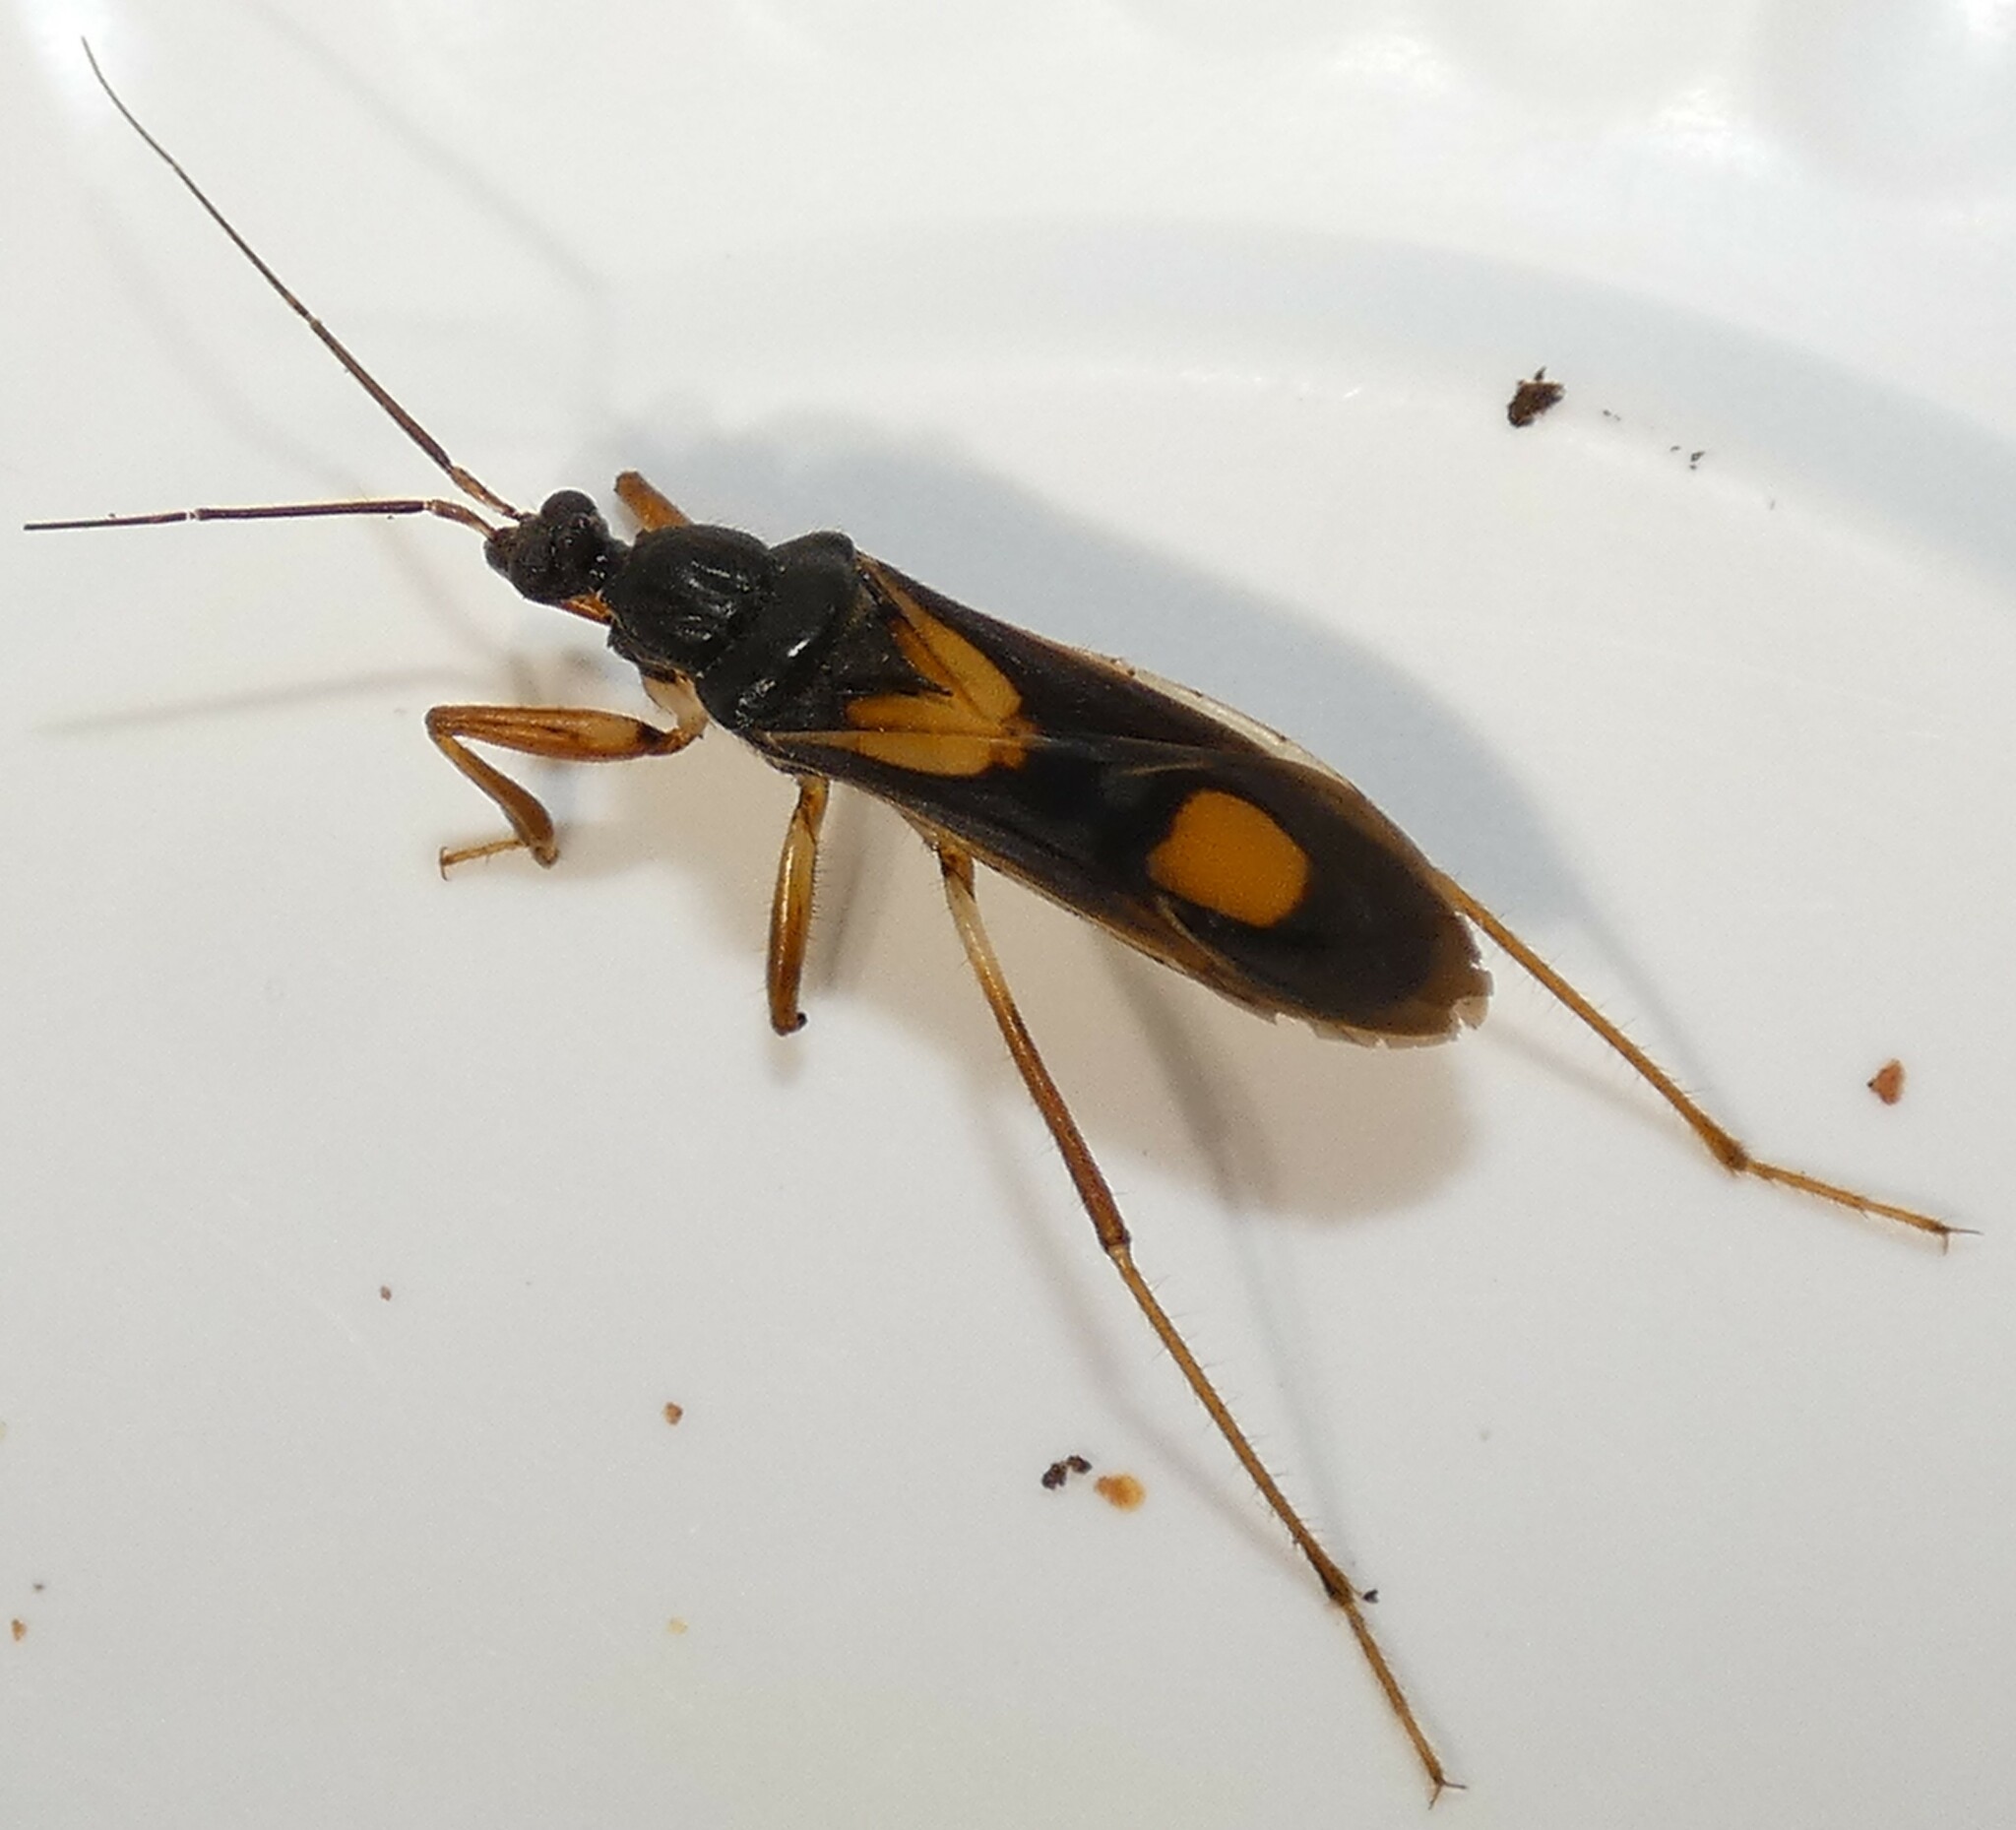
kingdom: Animalia
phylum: Arthropoda
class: Insecta
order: Hemiptera
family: Reduviidae
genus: Rasahus
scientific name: Rasahus hamatus
